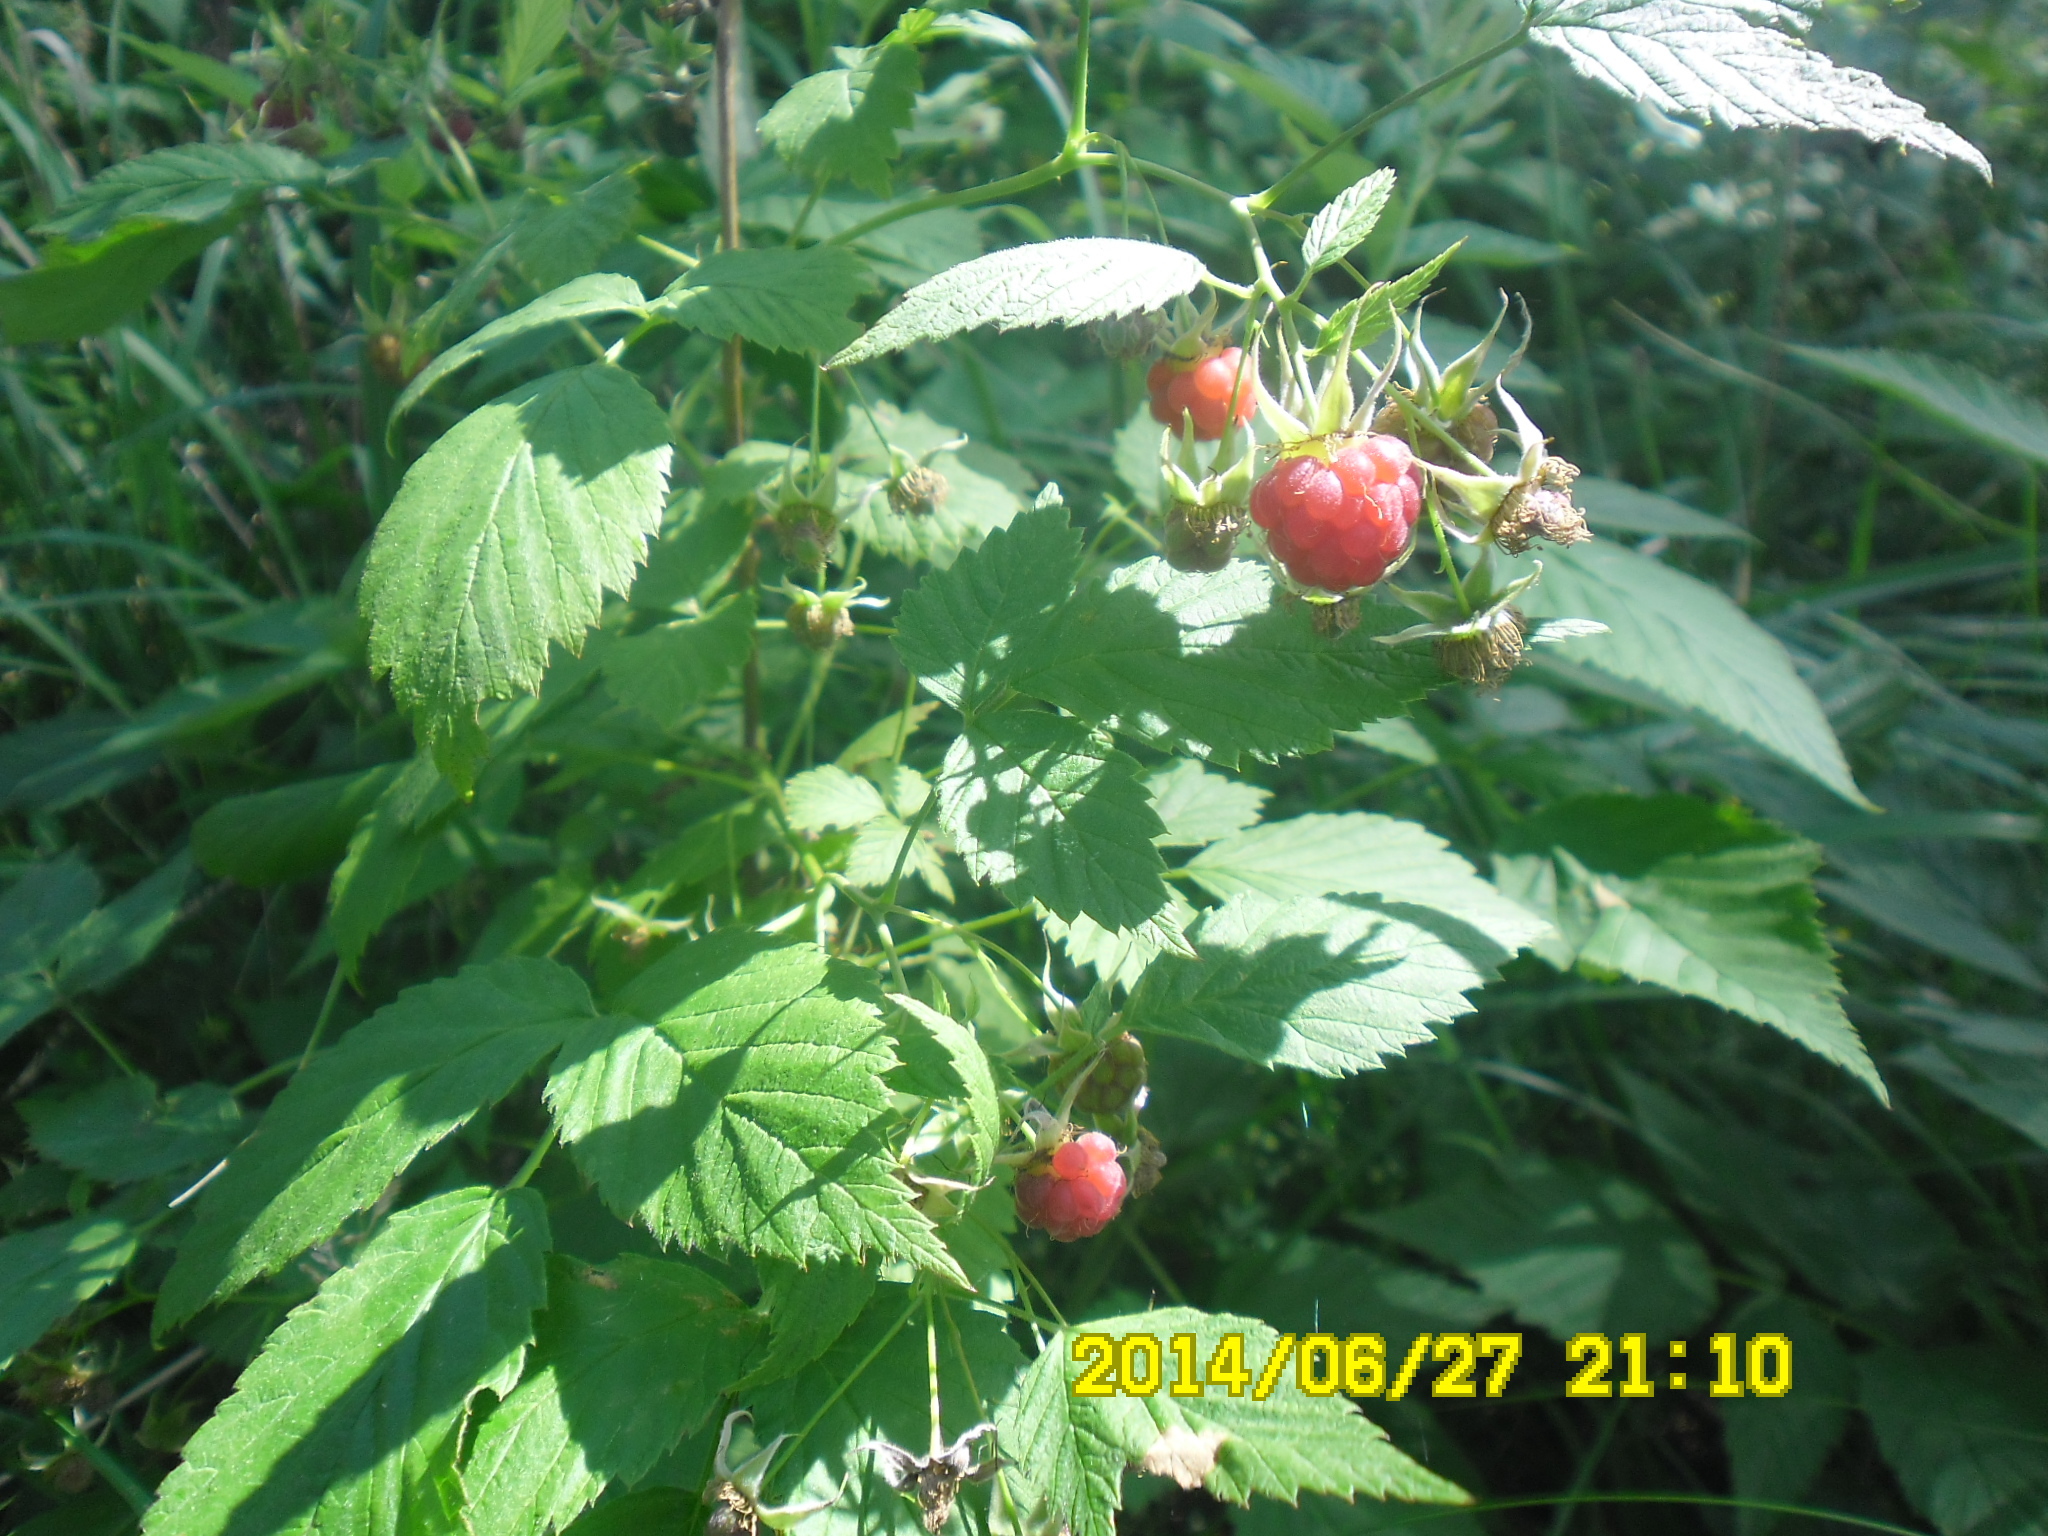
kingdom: Plantae
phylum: Tracheophyta
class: Magnoliopsida
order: Rosales
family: Rosaceae
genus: Rubus
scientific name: Rubus idaeus
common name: Raspberry
